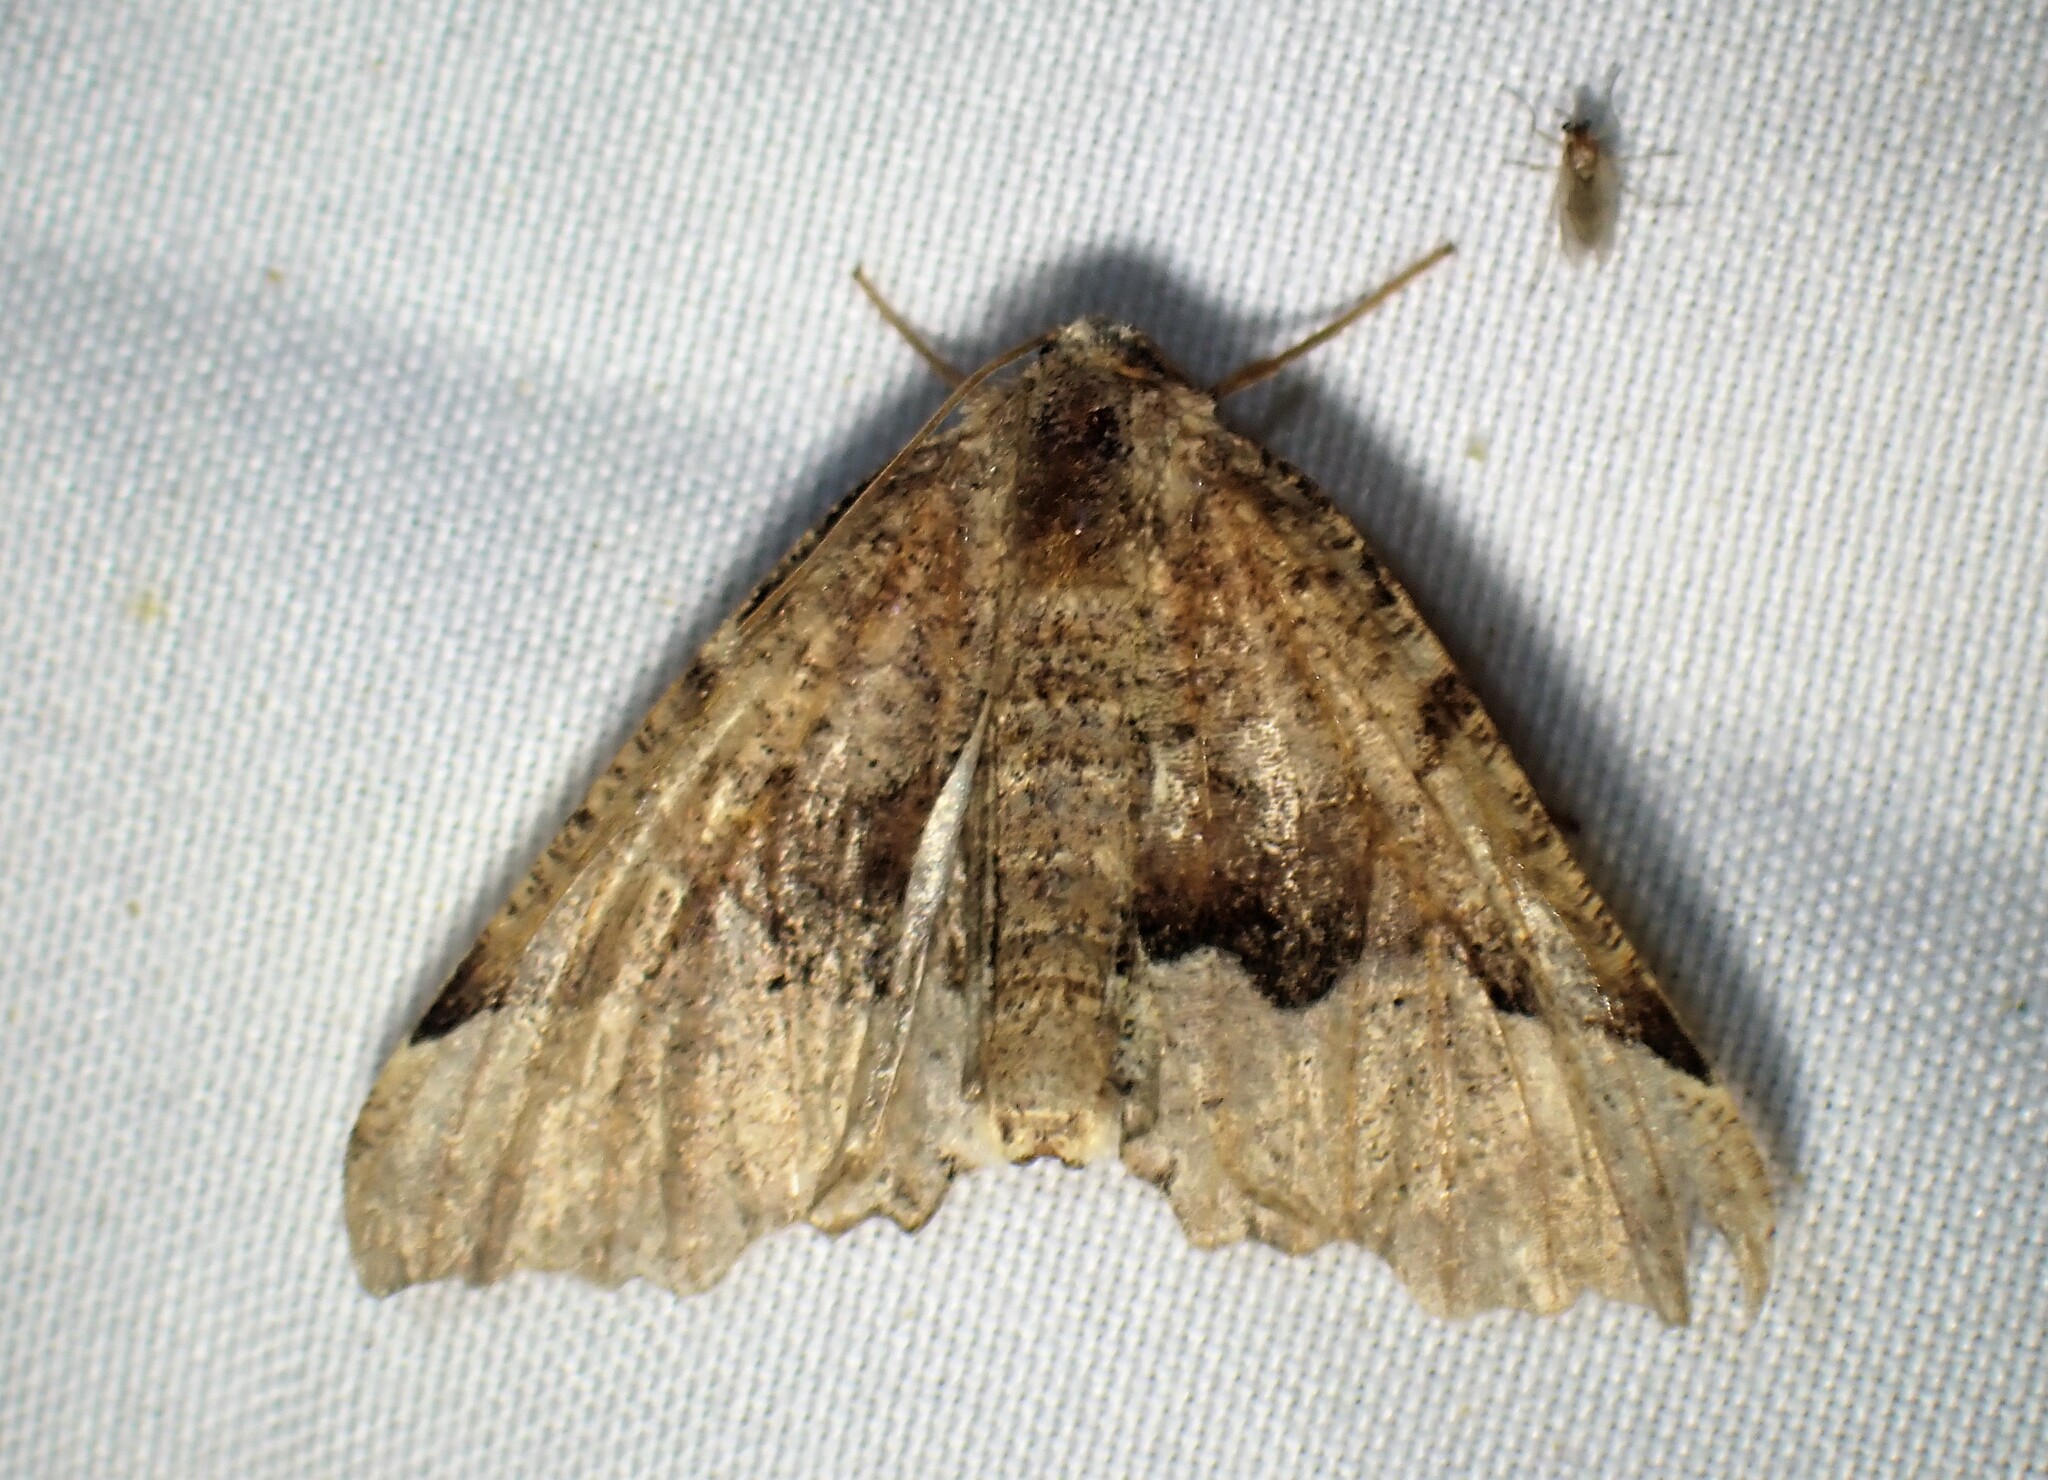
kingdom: Animalia
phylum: Arthropoda
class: Insecta
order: Lepidoptera
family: Geometridae
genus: Pero
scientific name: Pero morrisonaria
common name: Morrison's pero
